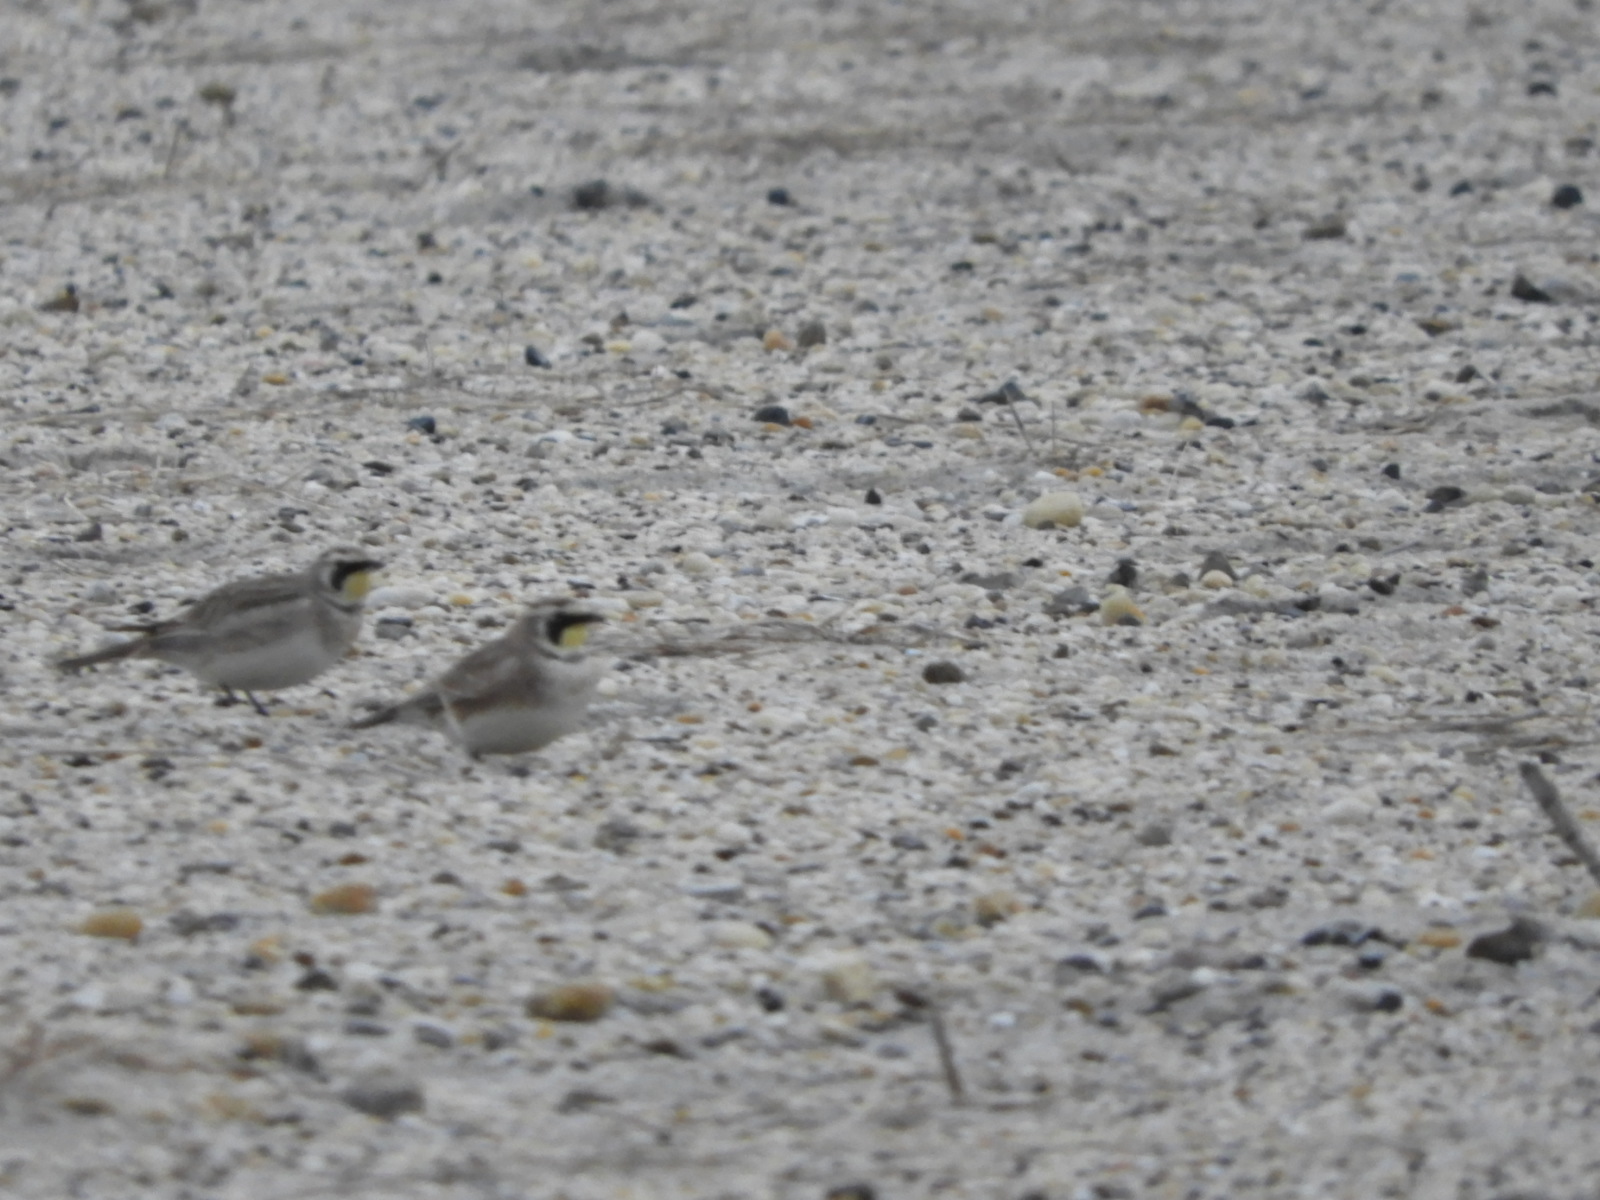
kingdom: Animalia
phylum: Chordata
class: Aves
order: Passeriformes
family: Alaudidae
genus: Eremophila
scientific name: Eremophila alpestris
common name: Horned lark
